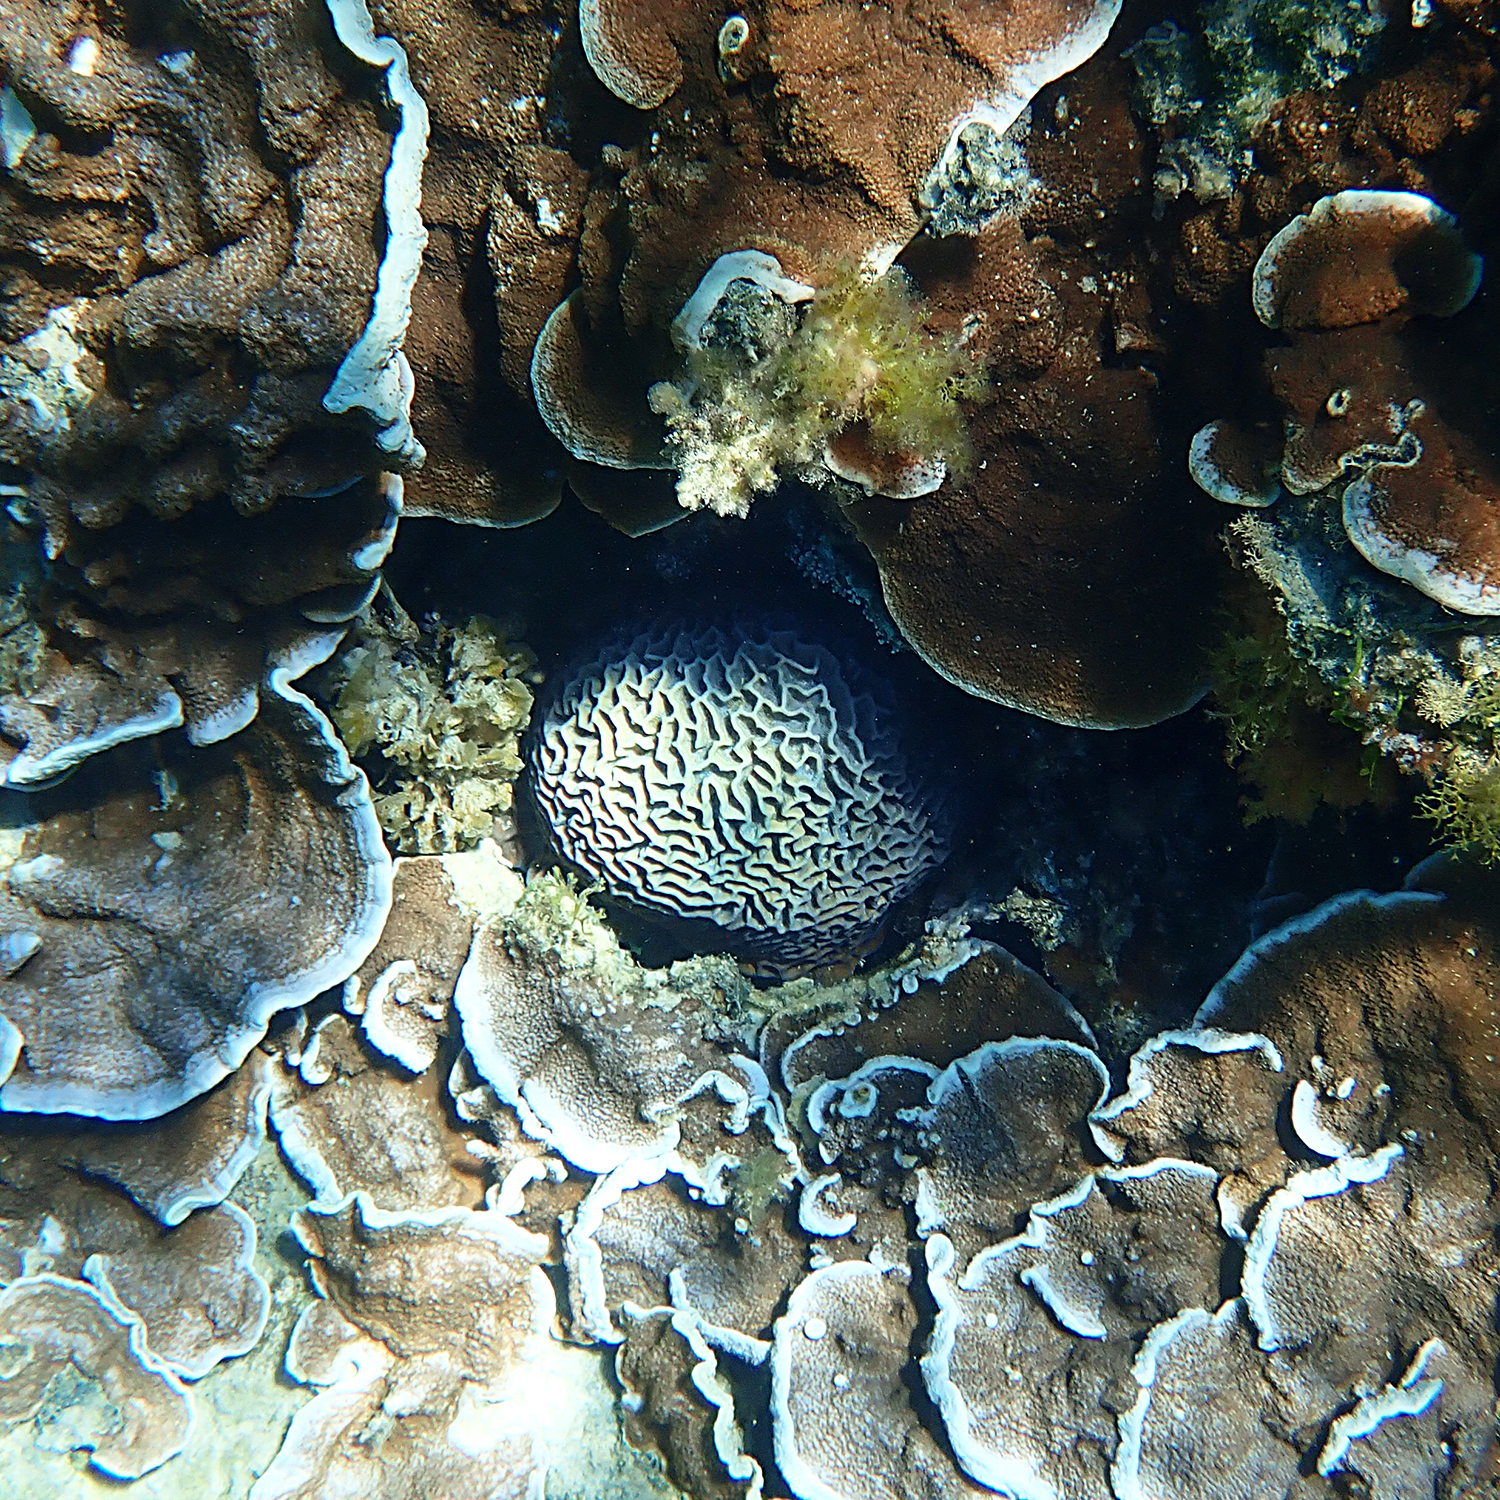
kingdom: Animalia
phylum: Cnidaria
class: Anthozoa
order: Scleractinia
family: Merulinidae
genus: Paragoniastrea
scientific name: Paragoniastrea australensis
